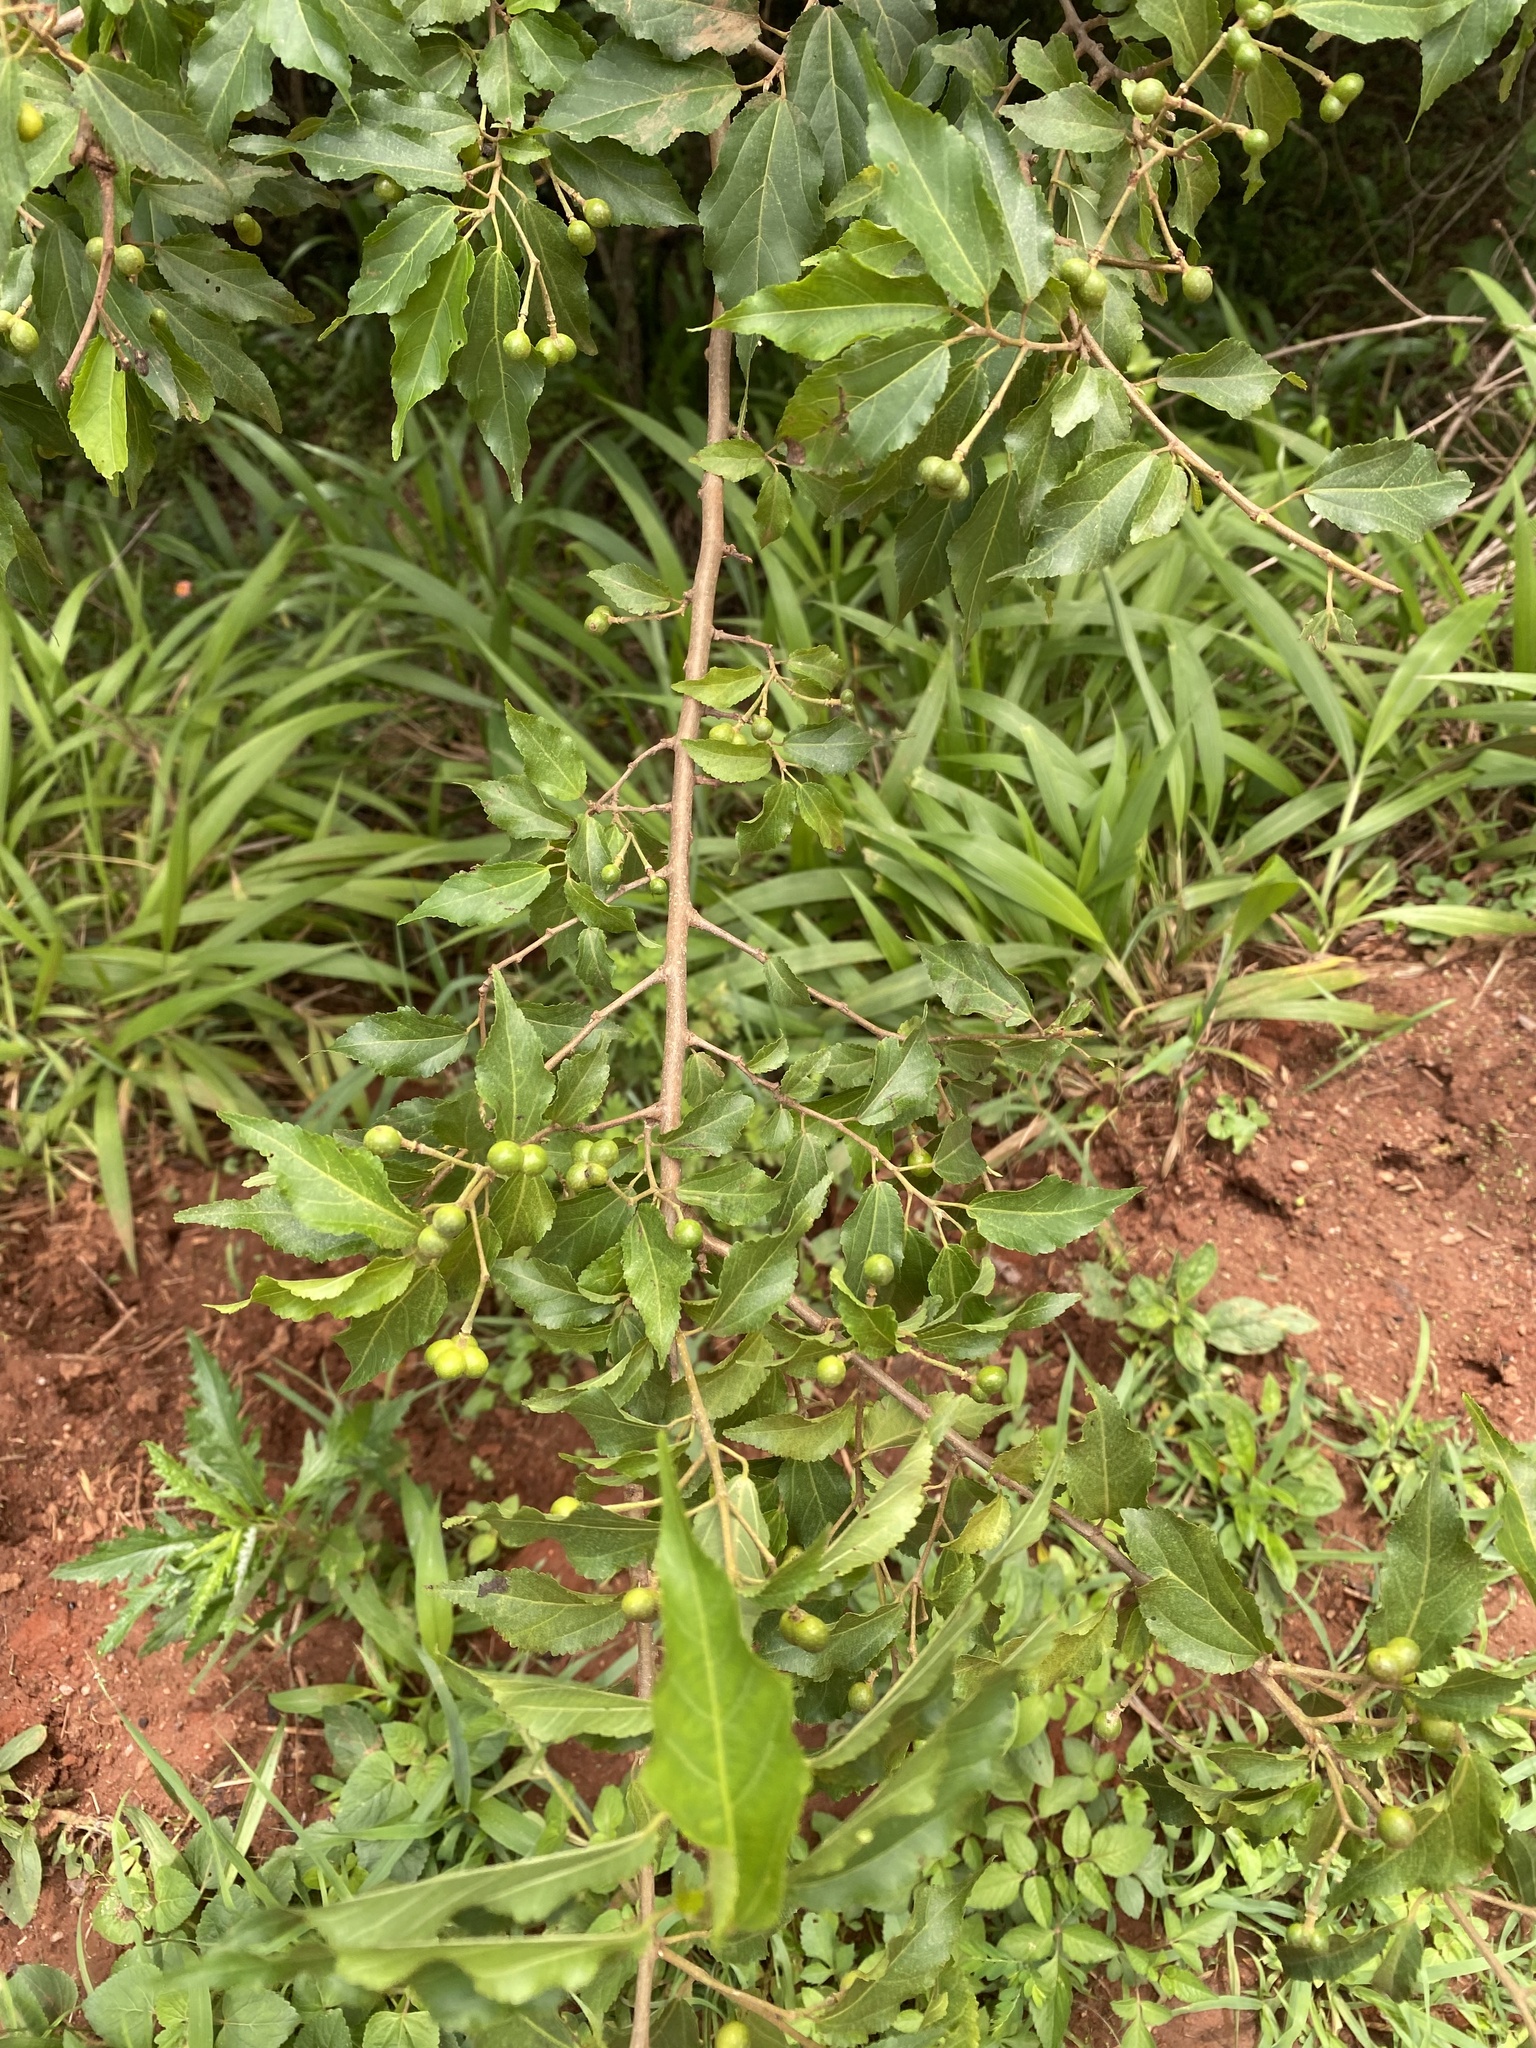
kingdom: Plantae
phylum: Tracheophyta
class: Magnoliopsida
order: Malvales
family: Malvaceae
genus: Grewia
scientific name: Grewia occidentalis
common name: Crossberry
